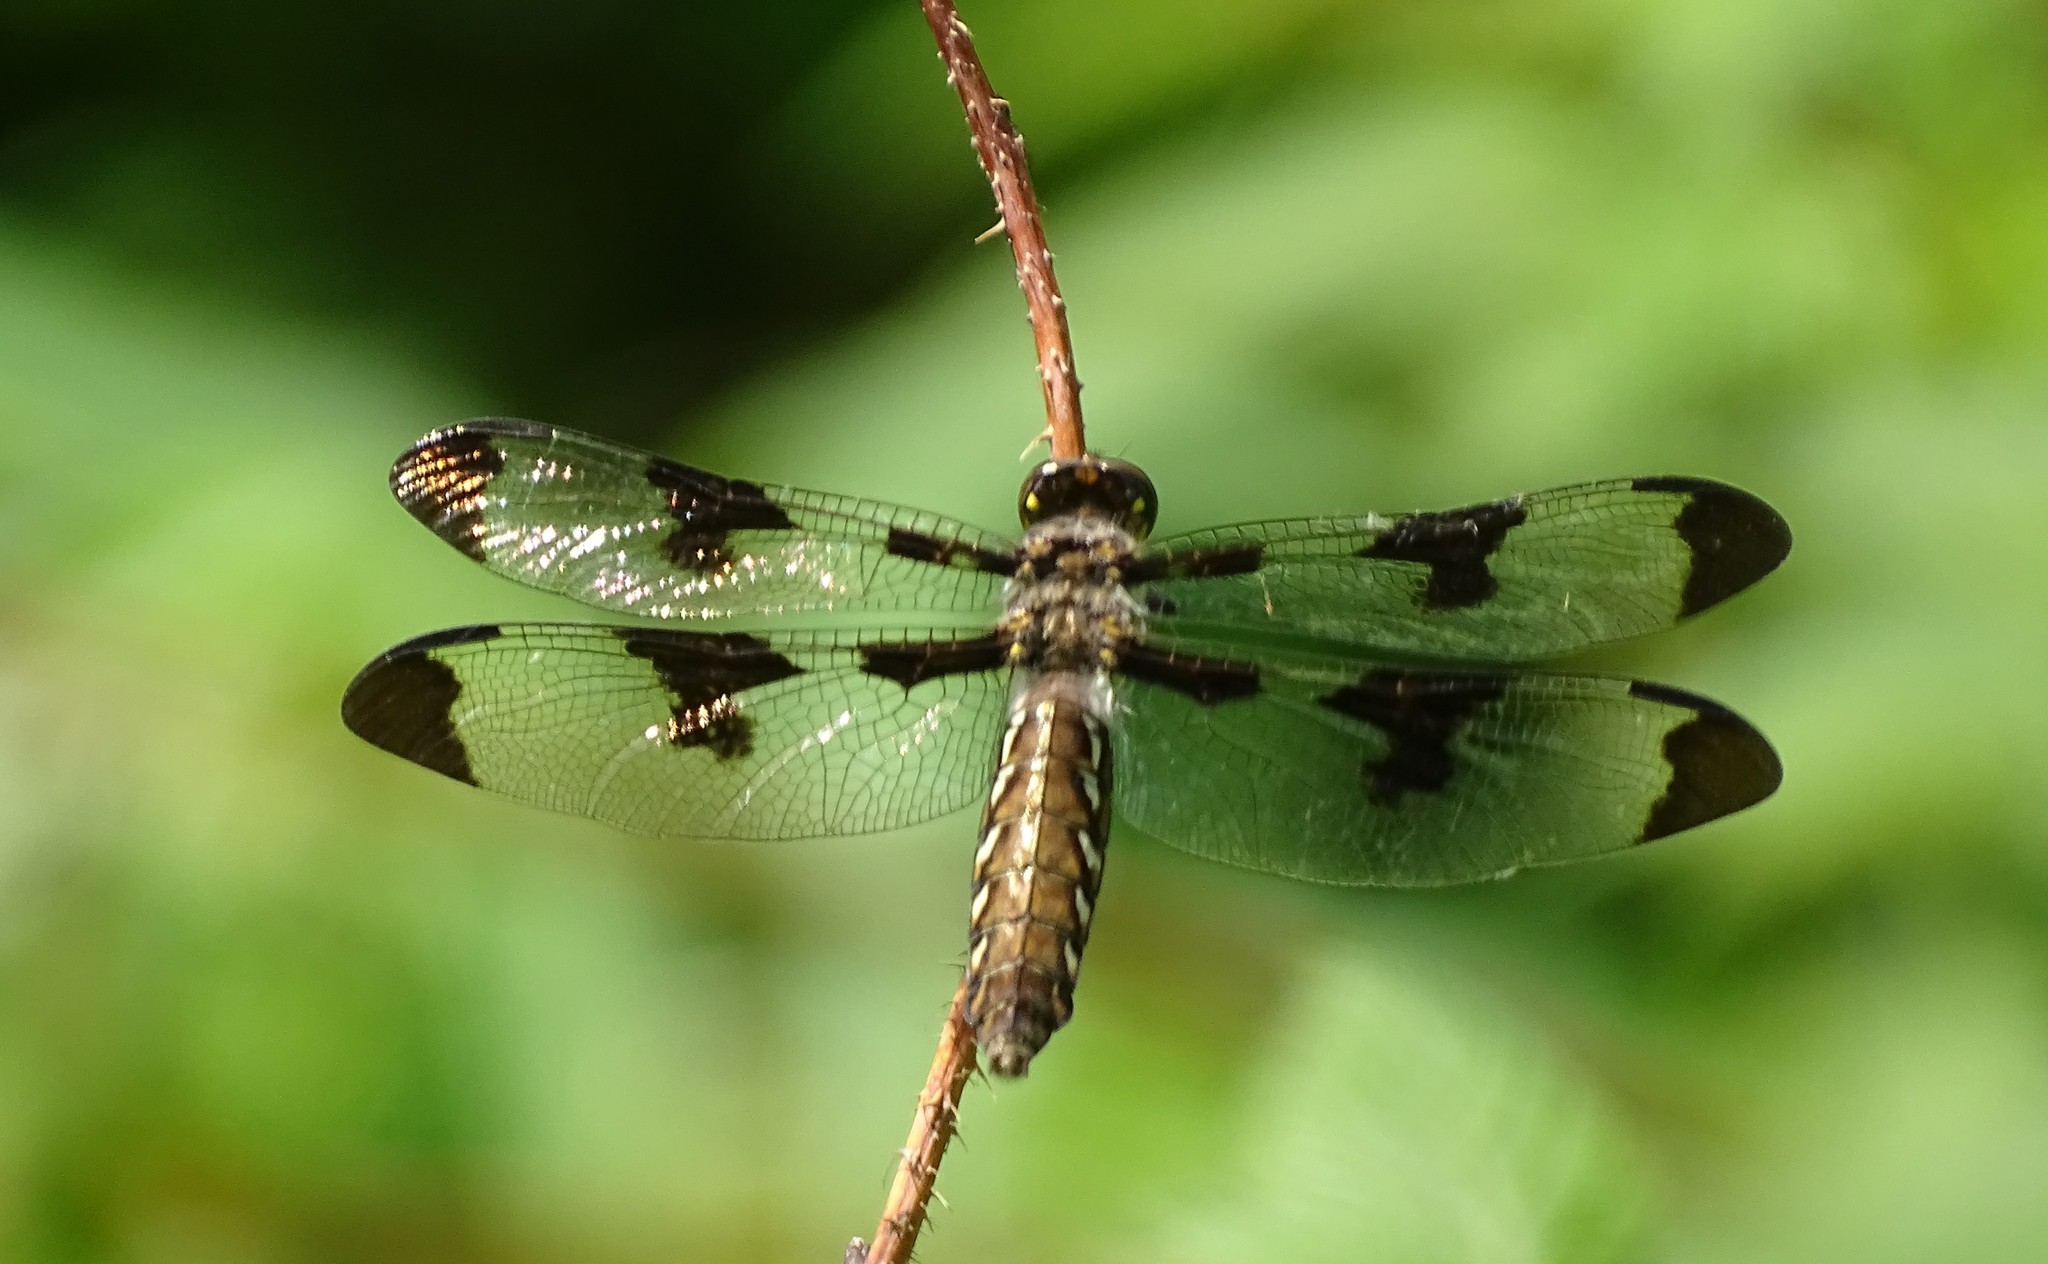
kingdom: Animalia
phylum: Arthropoda
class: Insecta
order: Odonata
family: Libellulidae
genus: Plathemis
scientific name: Plathemis lydia
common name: Common whitetail
